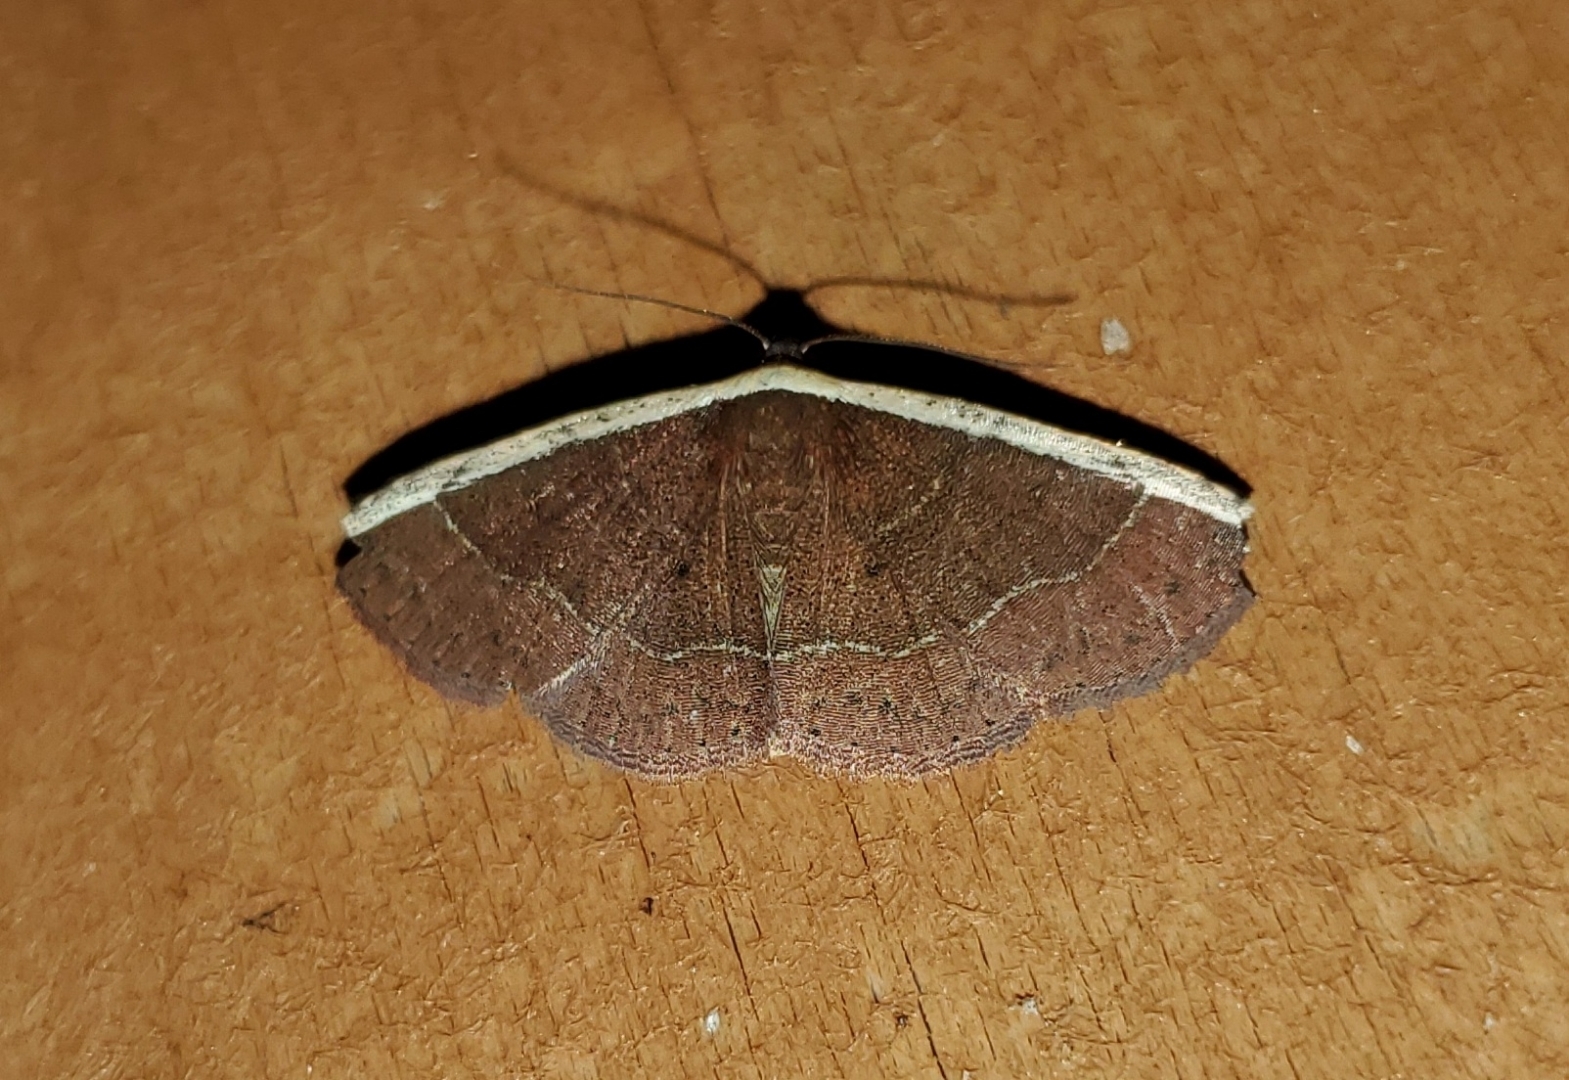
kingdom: Animalia
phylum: Arthropoda
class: Insecta
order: Lepidoptera
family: Noctuidae
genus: Ozarba
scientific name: Ozarba albocostaliata
